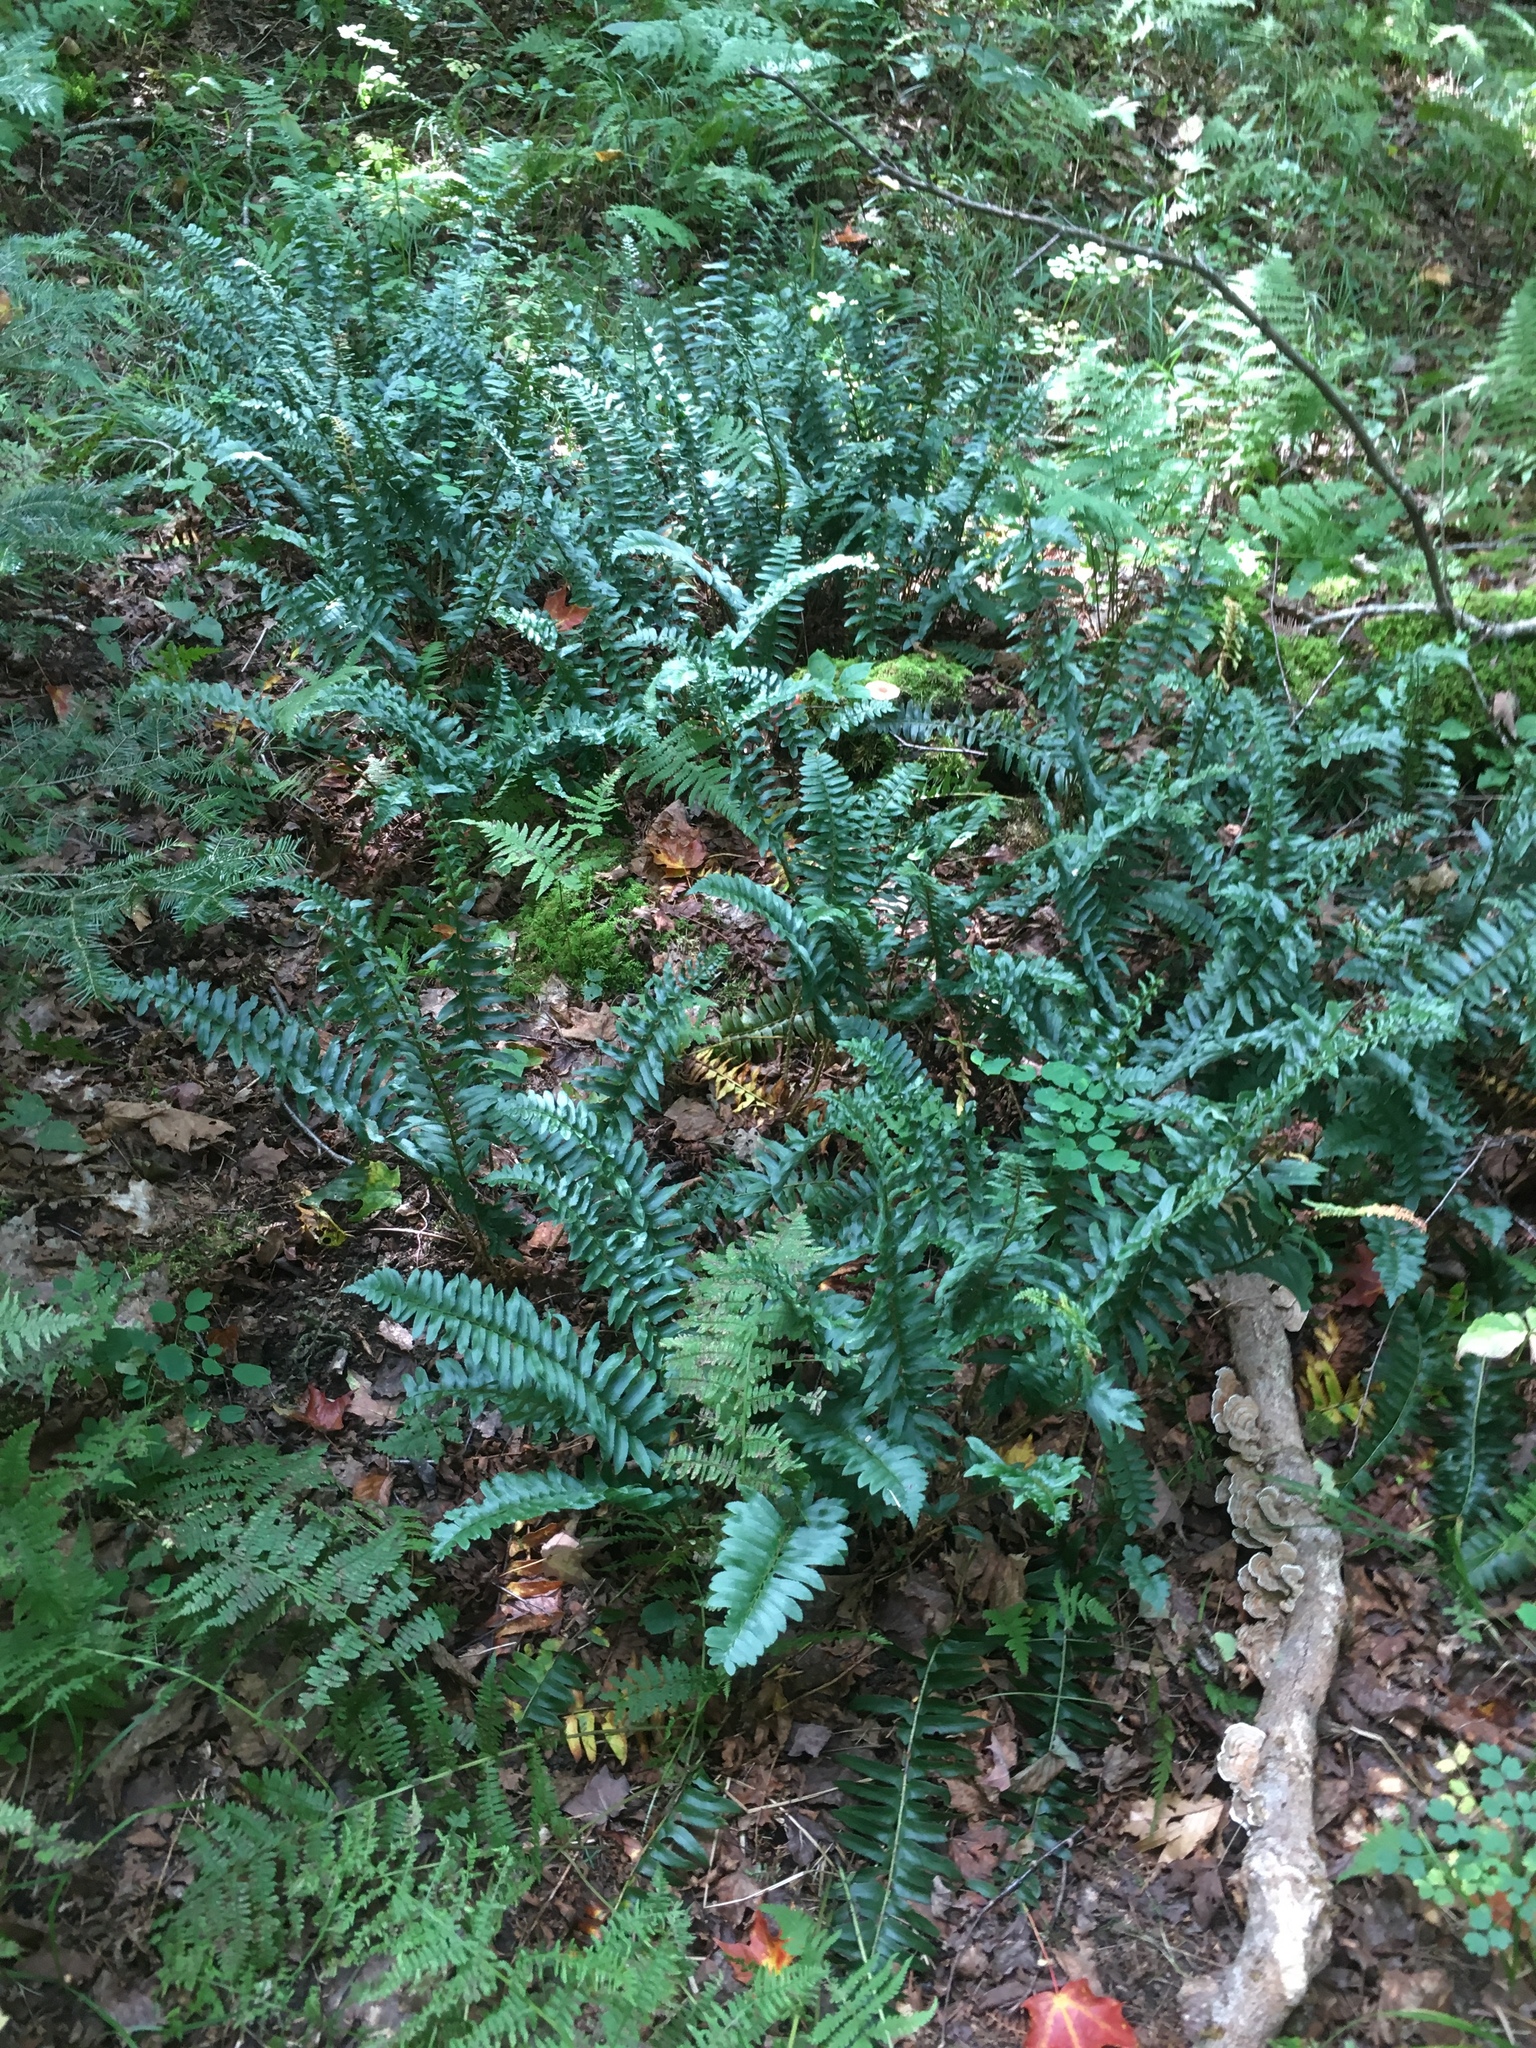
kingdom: Plantae
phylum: Tracheophyta
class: Polypodiopsida
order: Polypodiales
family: Dryopteridaceae
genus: Polystichum
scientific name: Polystichum acrostichoides
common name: Christmas fern
